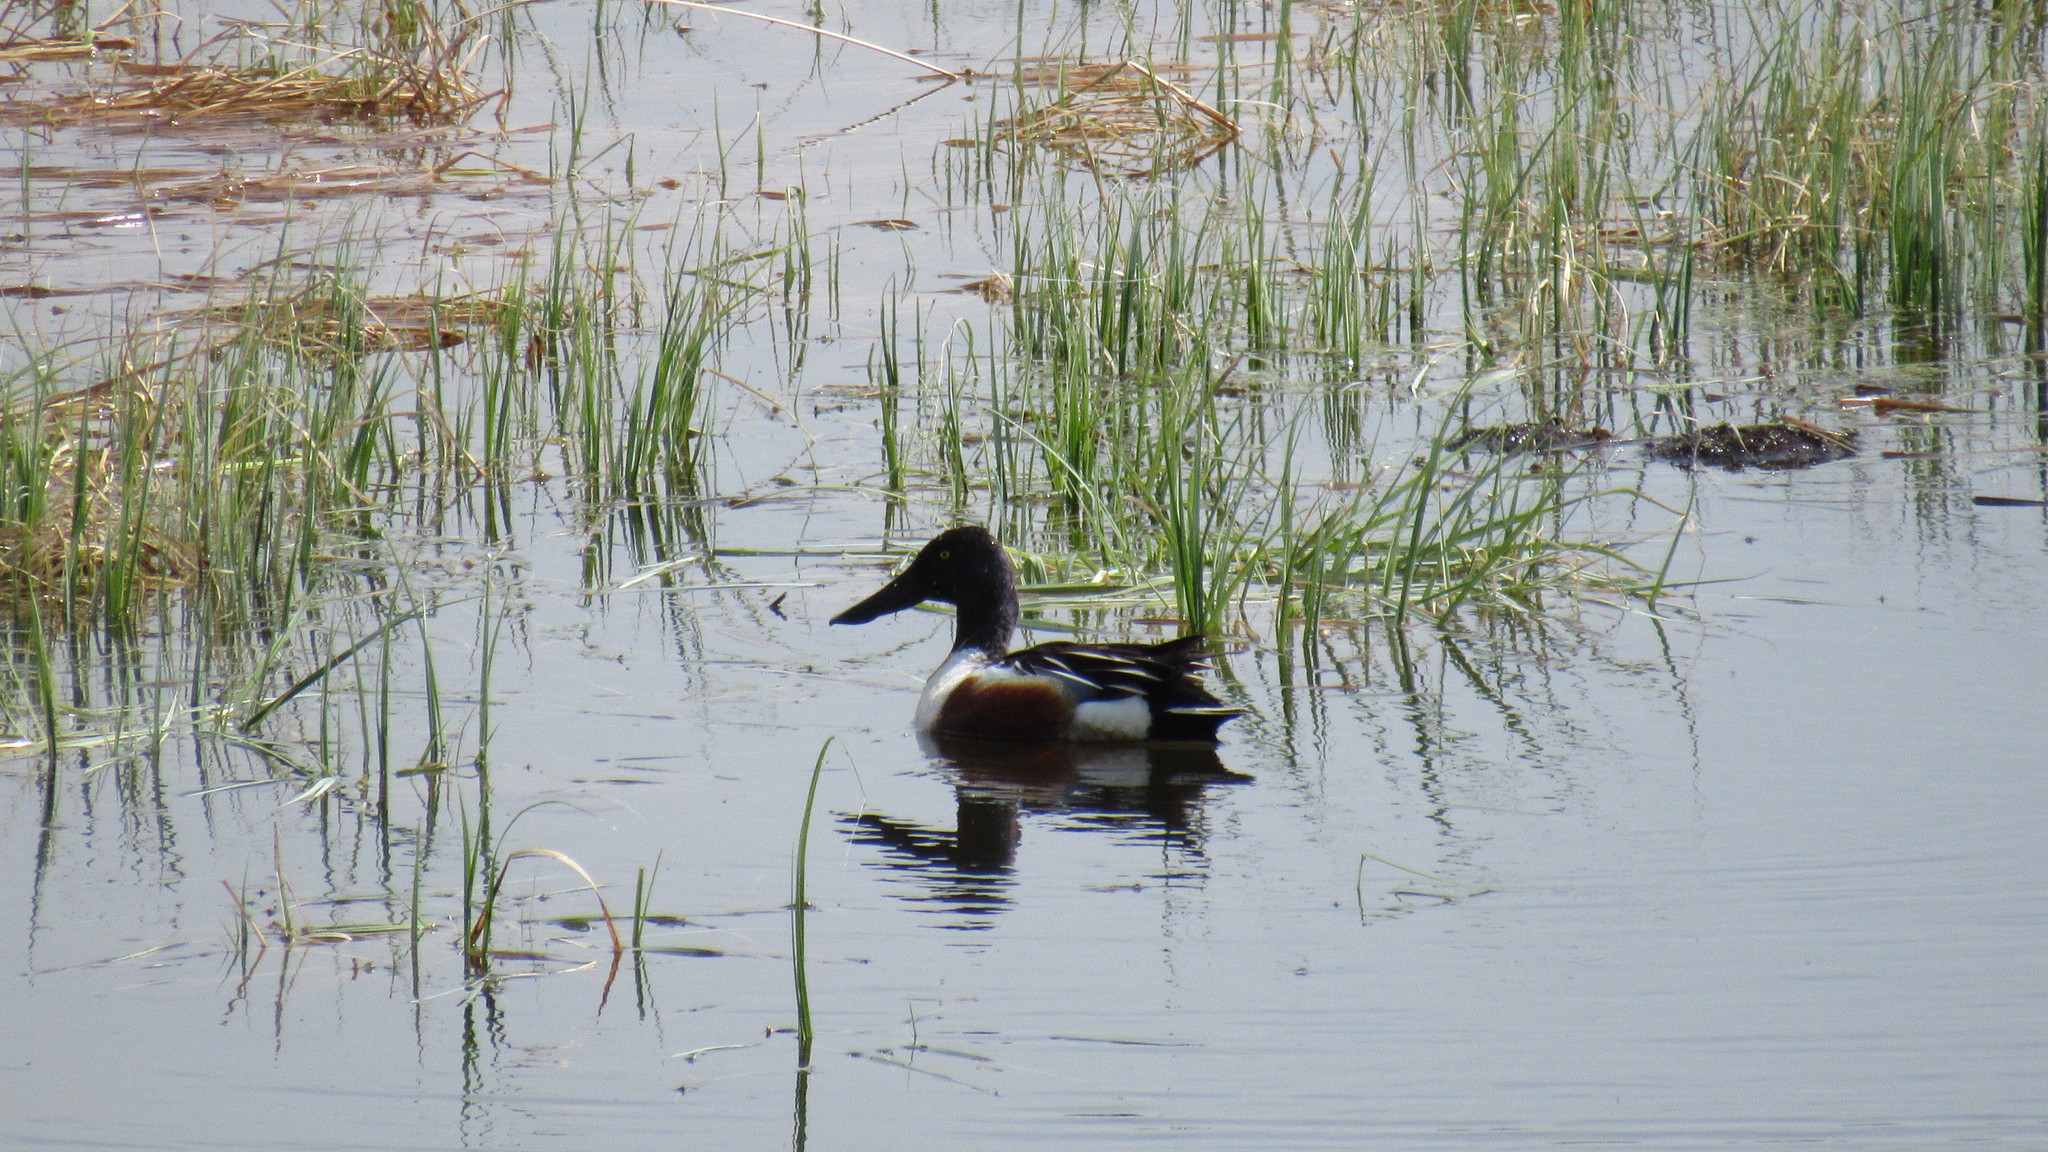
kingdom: Animalia
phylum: Chordata
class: Aves
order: Anseriformes
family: Anatidae
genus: Spatula
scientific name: Spatula clypeata
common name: Northern shoveler
